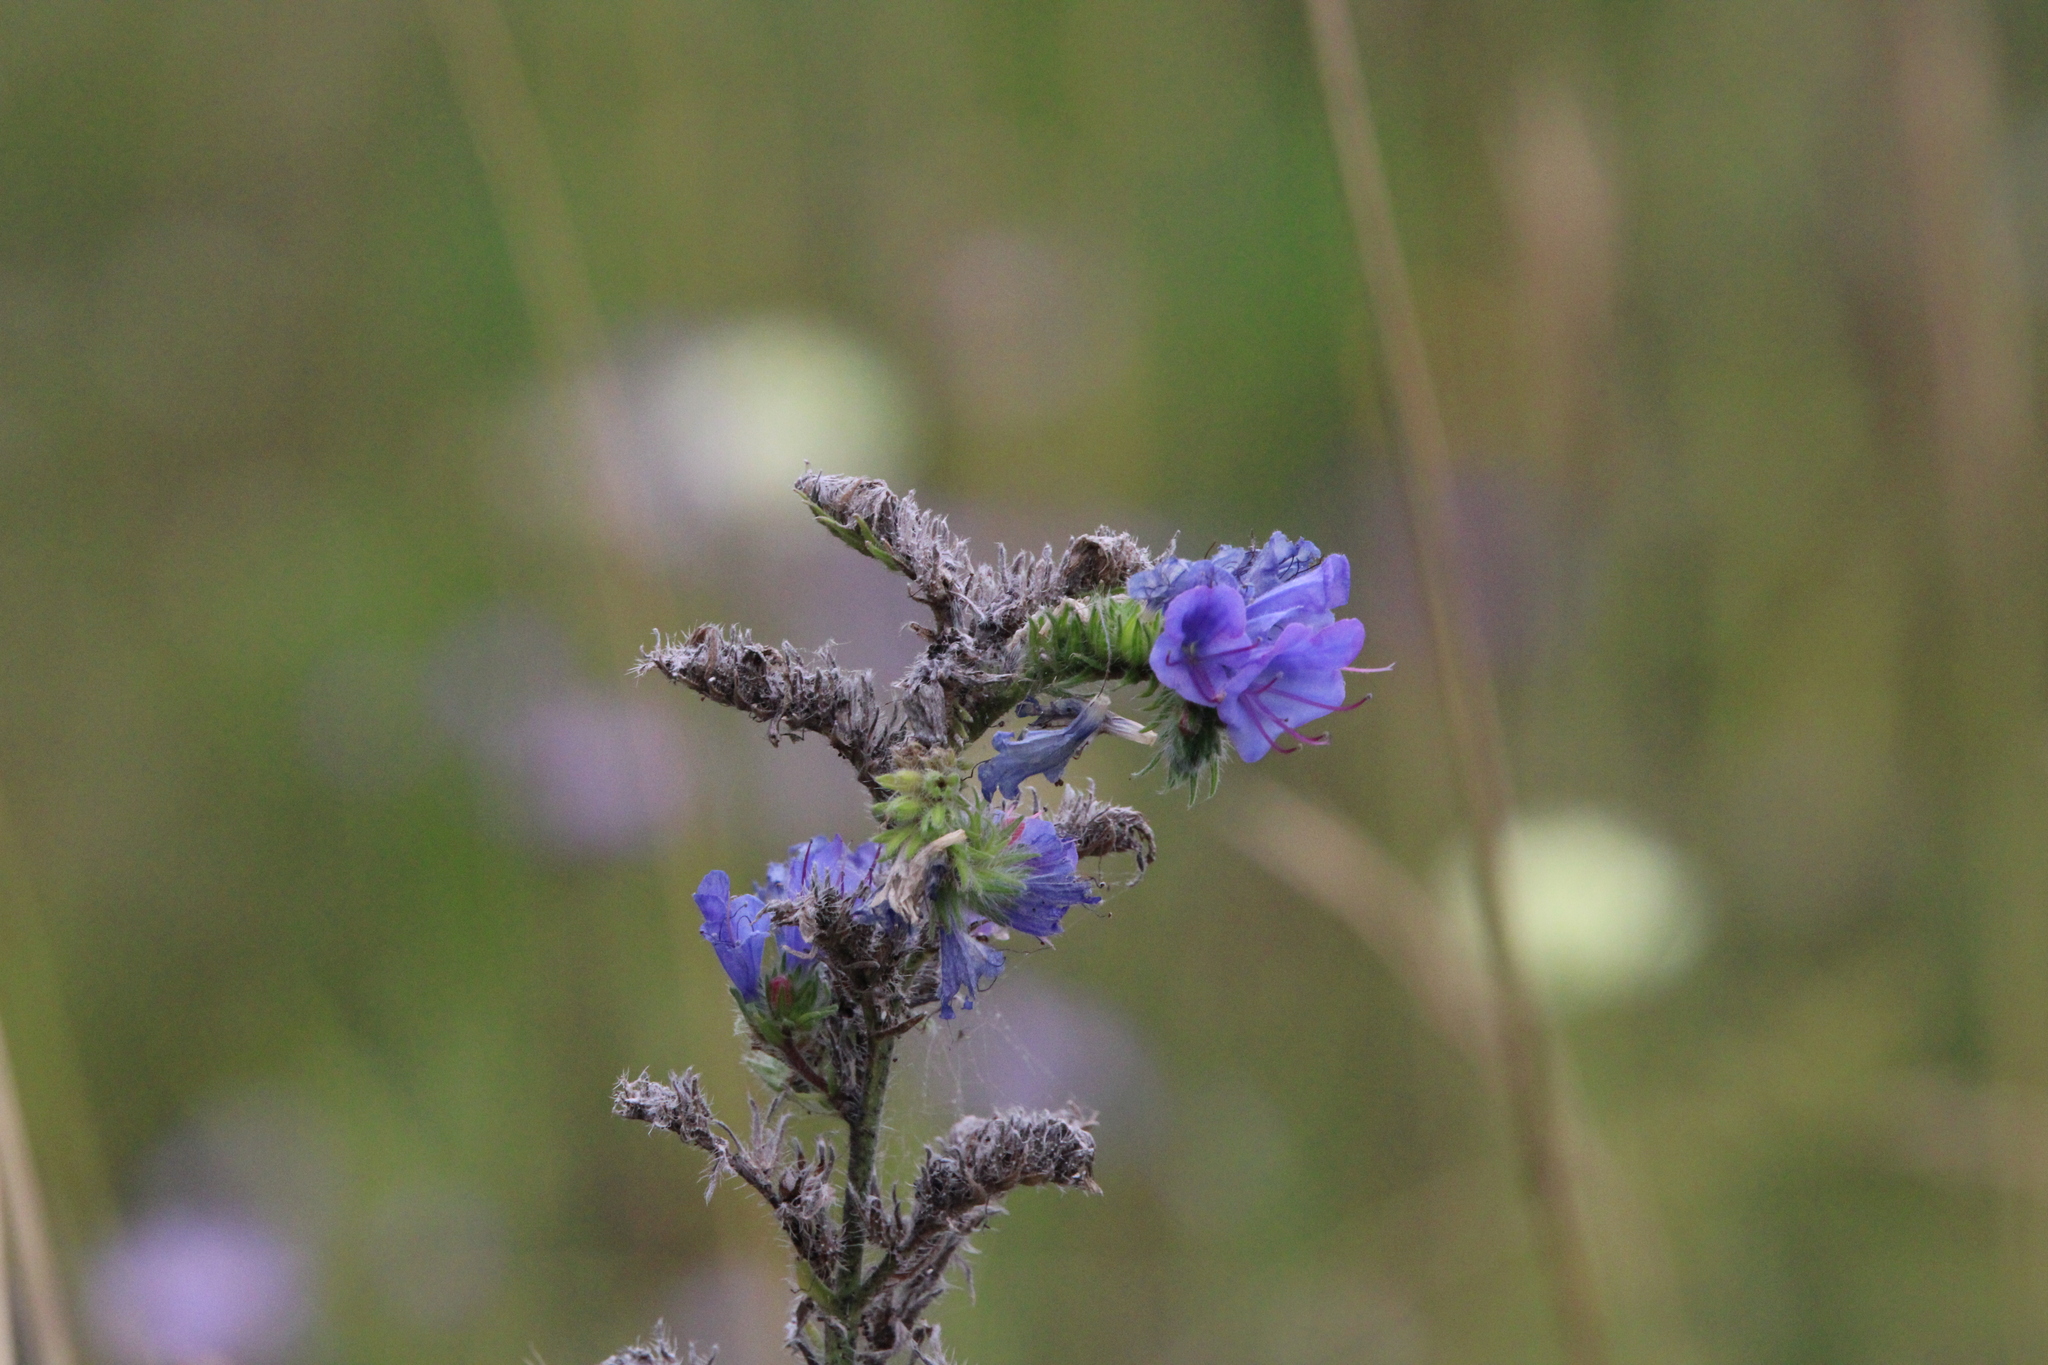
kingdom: Plantae
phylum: Tracheophyta
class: Magnoliopsida
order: Boraginales
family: Boraginaceae
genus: Echium
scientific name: Echium vulgare
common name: Common viper's bugloss
